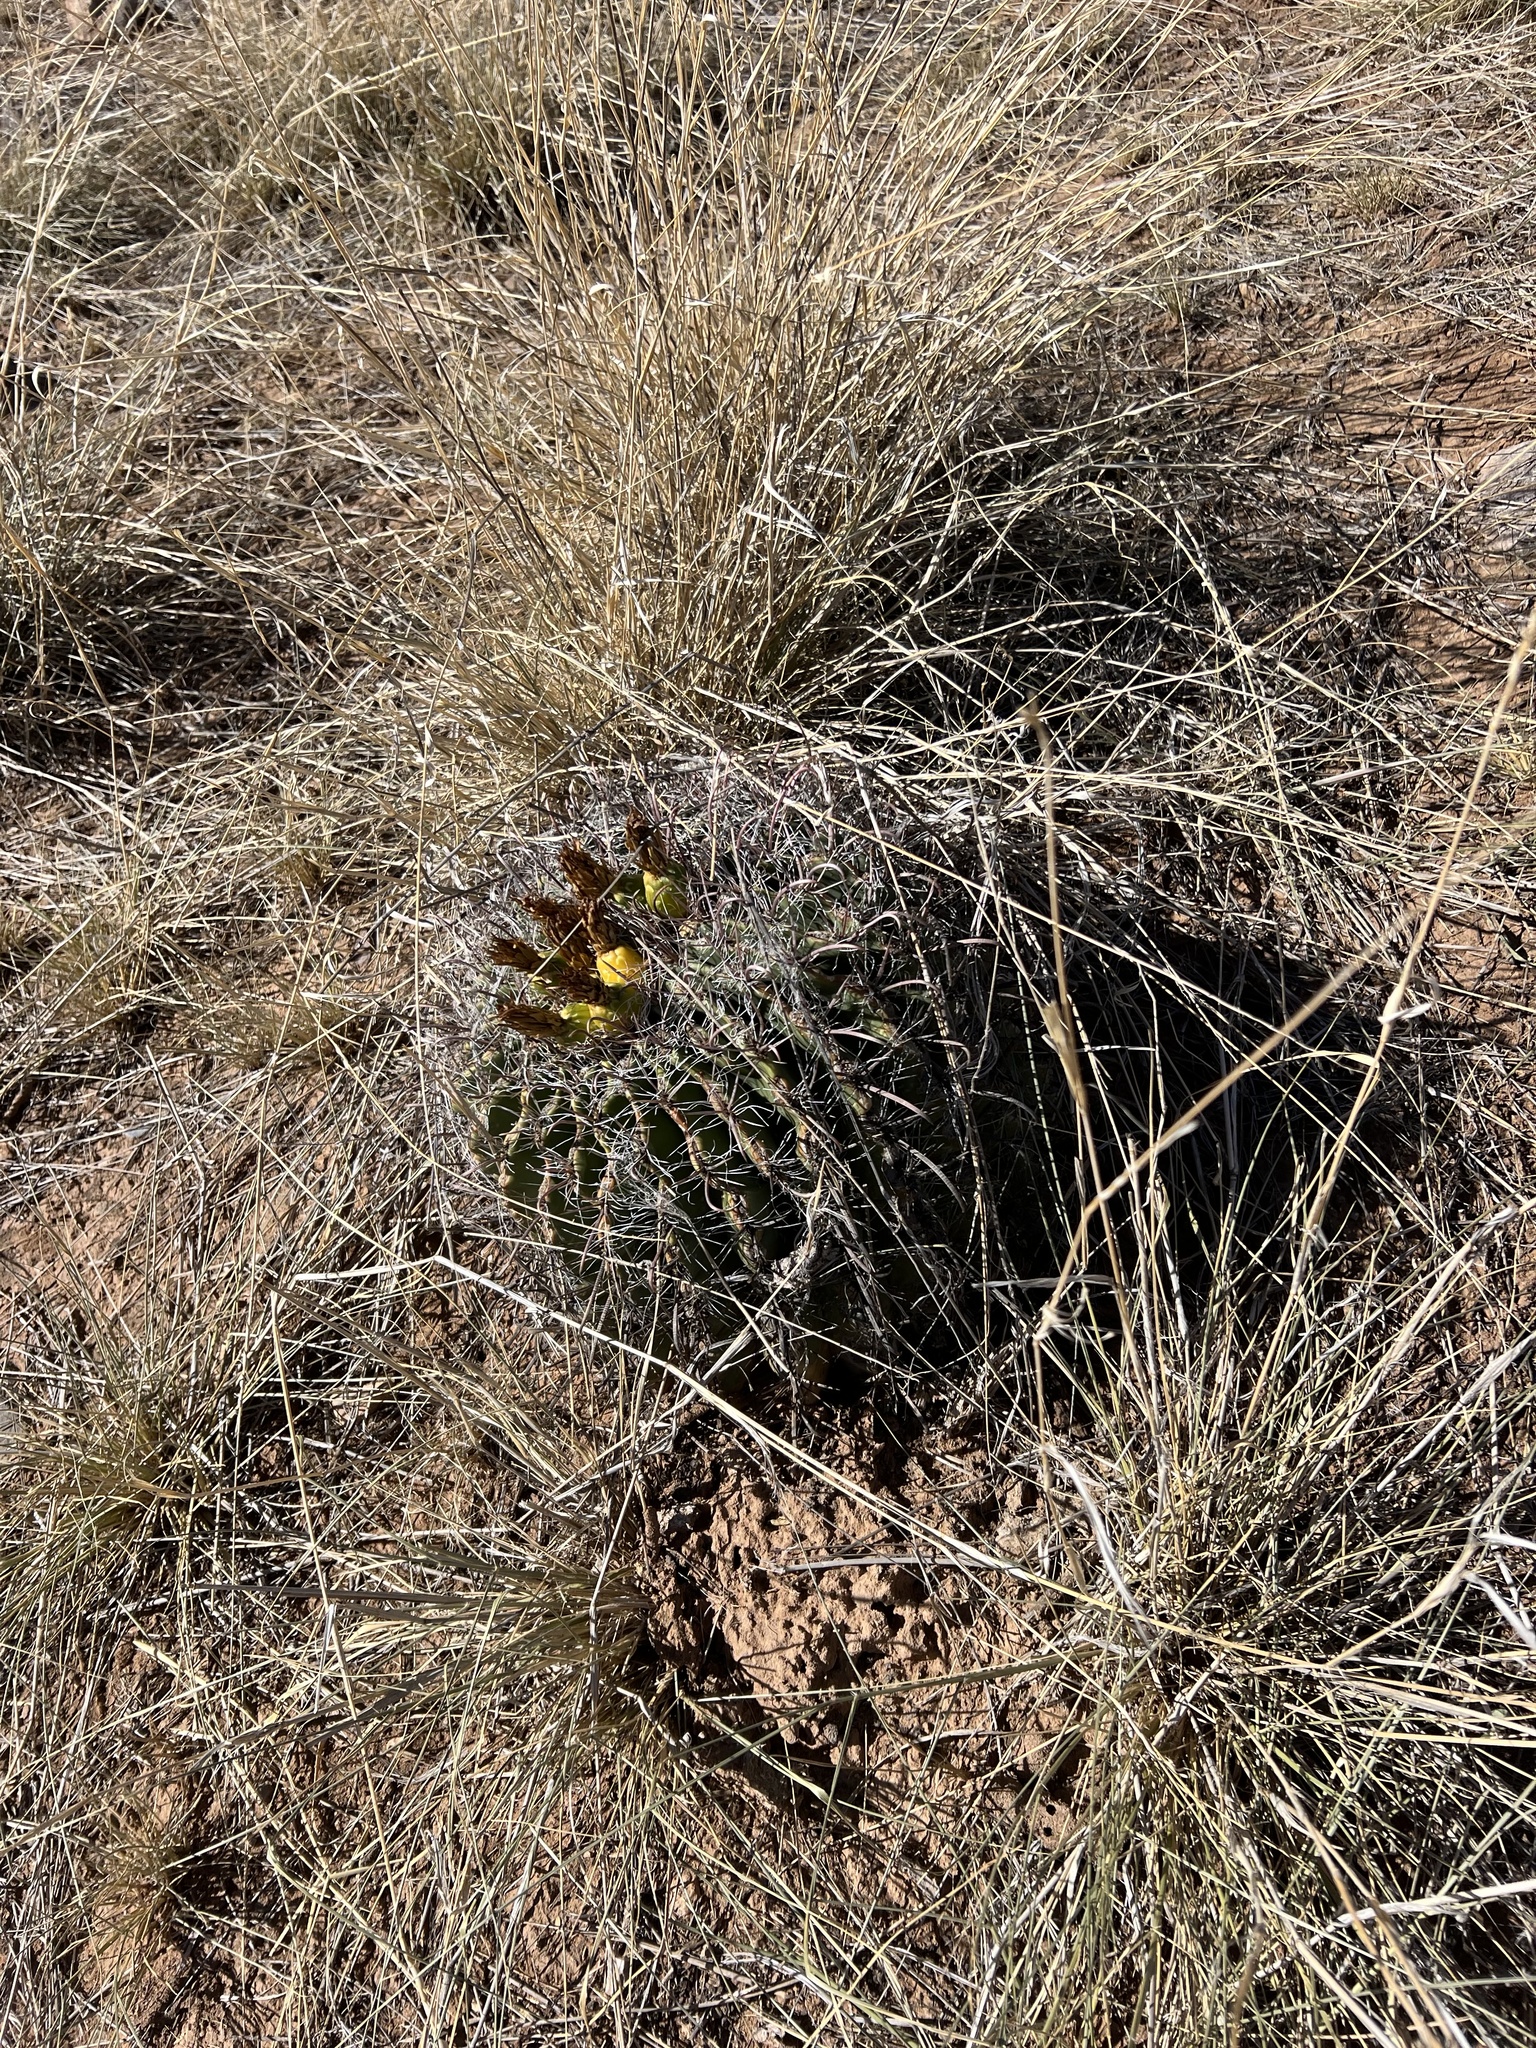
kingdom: Plantae
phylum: Tracheophyta
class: Magnoliopsida
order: Caryophyllales
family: Cactaceae
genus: Ferocactus
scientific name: Ferocactus wislizeni
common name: Candy barrel cactus
